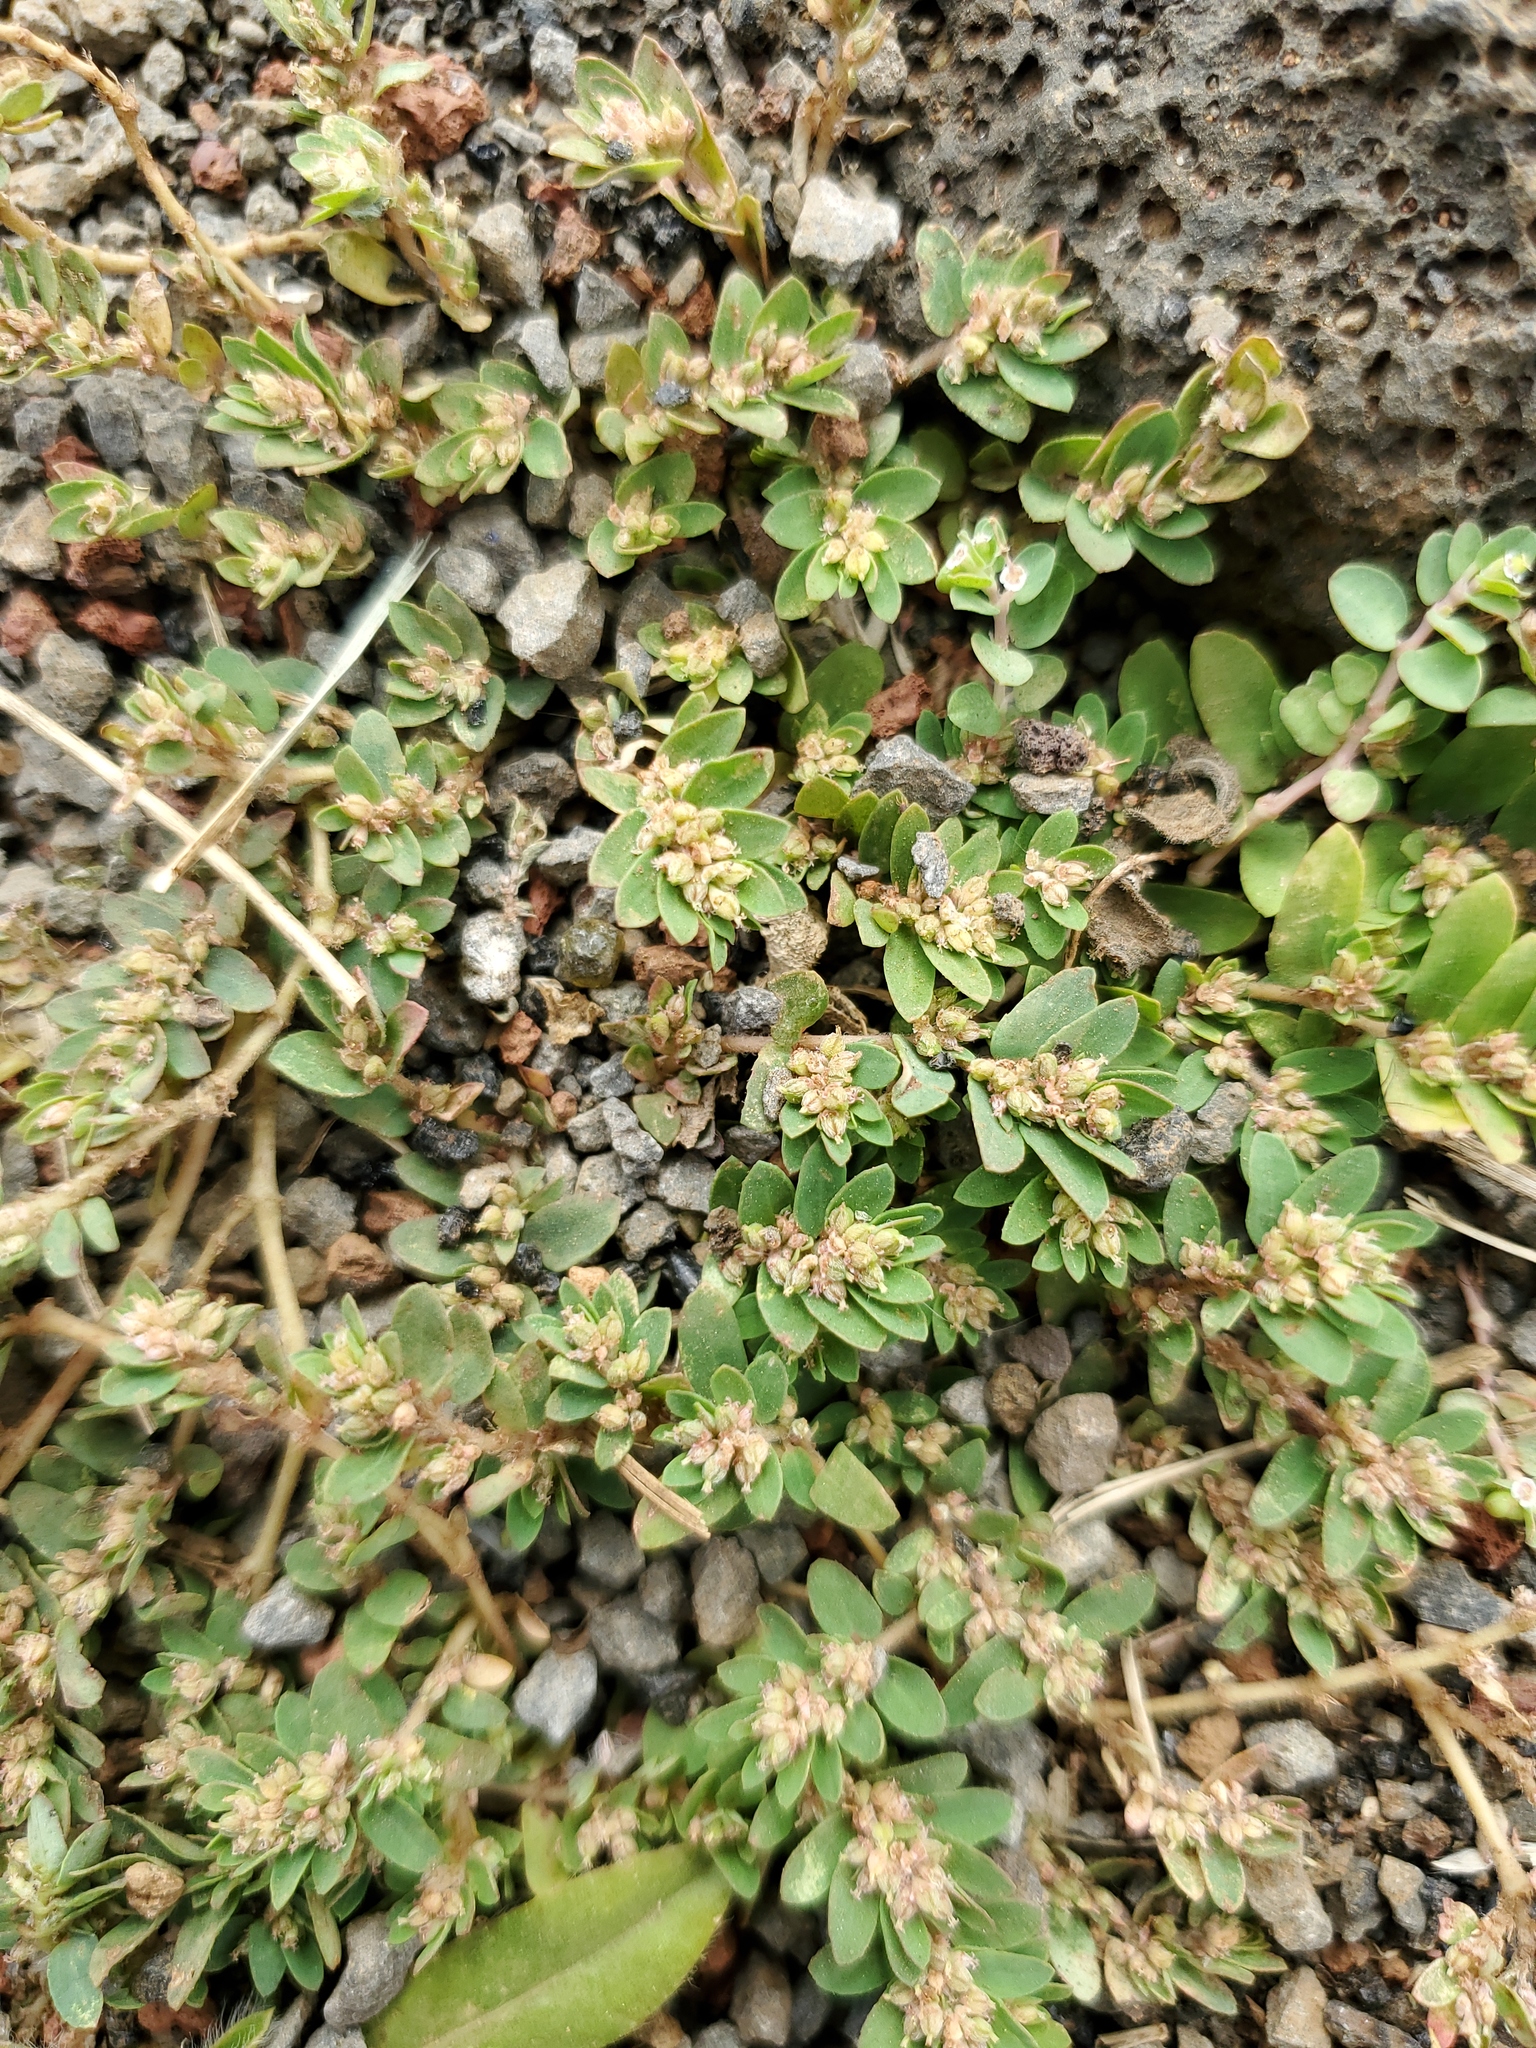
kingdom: Plantae
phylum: Tracheophyta
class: Magnoliopsida
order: Malpighiales
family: Euphorbiaceae
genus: Euphorbia
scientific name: Euphorbia thymifolia
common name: Gulf sandmat
